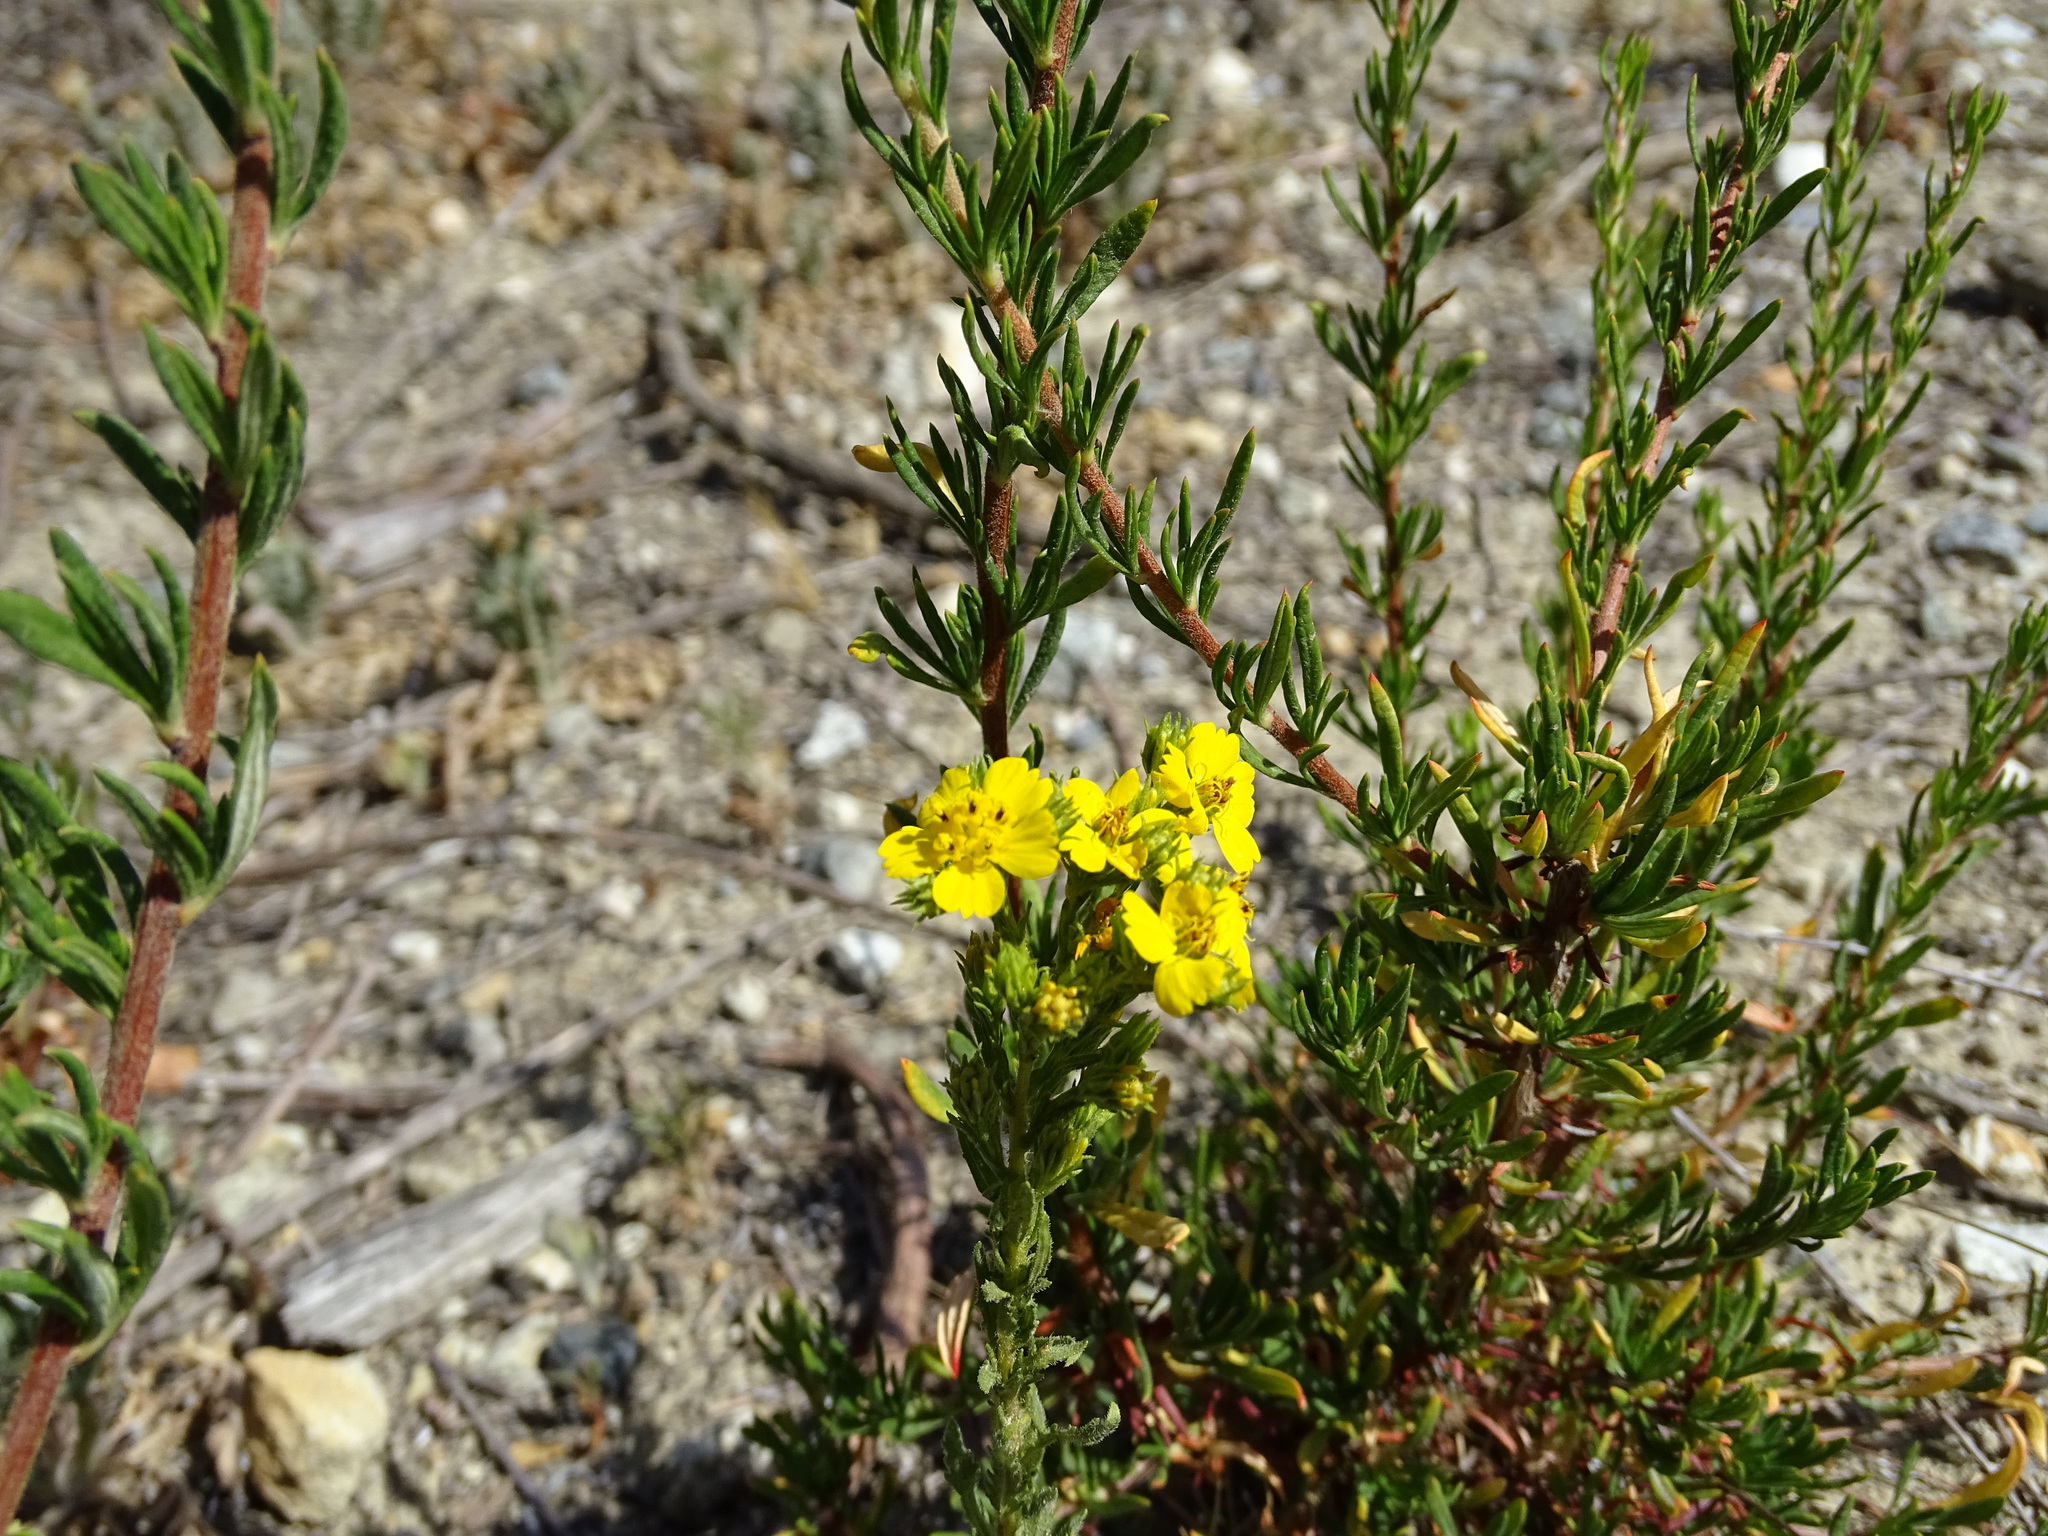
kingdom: Plantae
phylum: Tracheophyta
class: Magnoliopsida
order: Asterales
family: Asteraceae
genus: Deinandra
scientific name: Deinandra fasciculata
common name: Clustered tarweed
